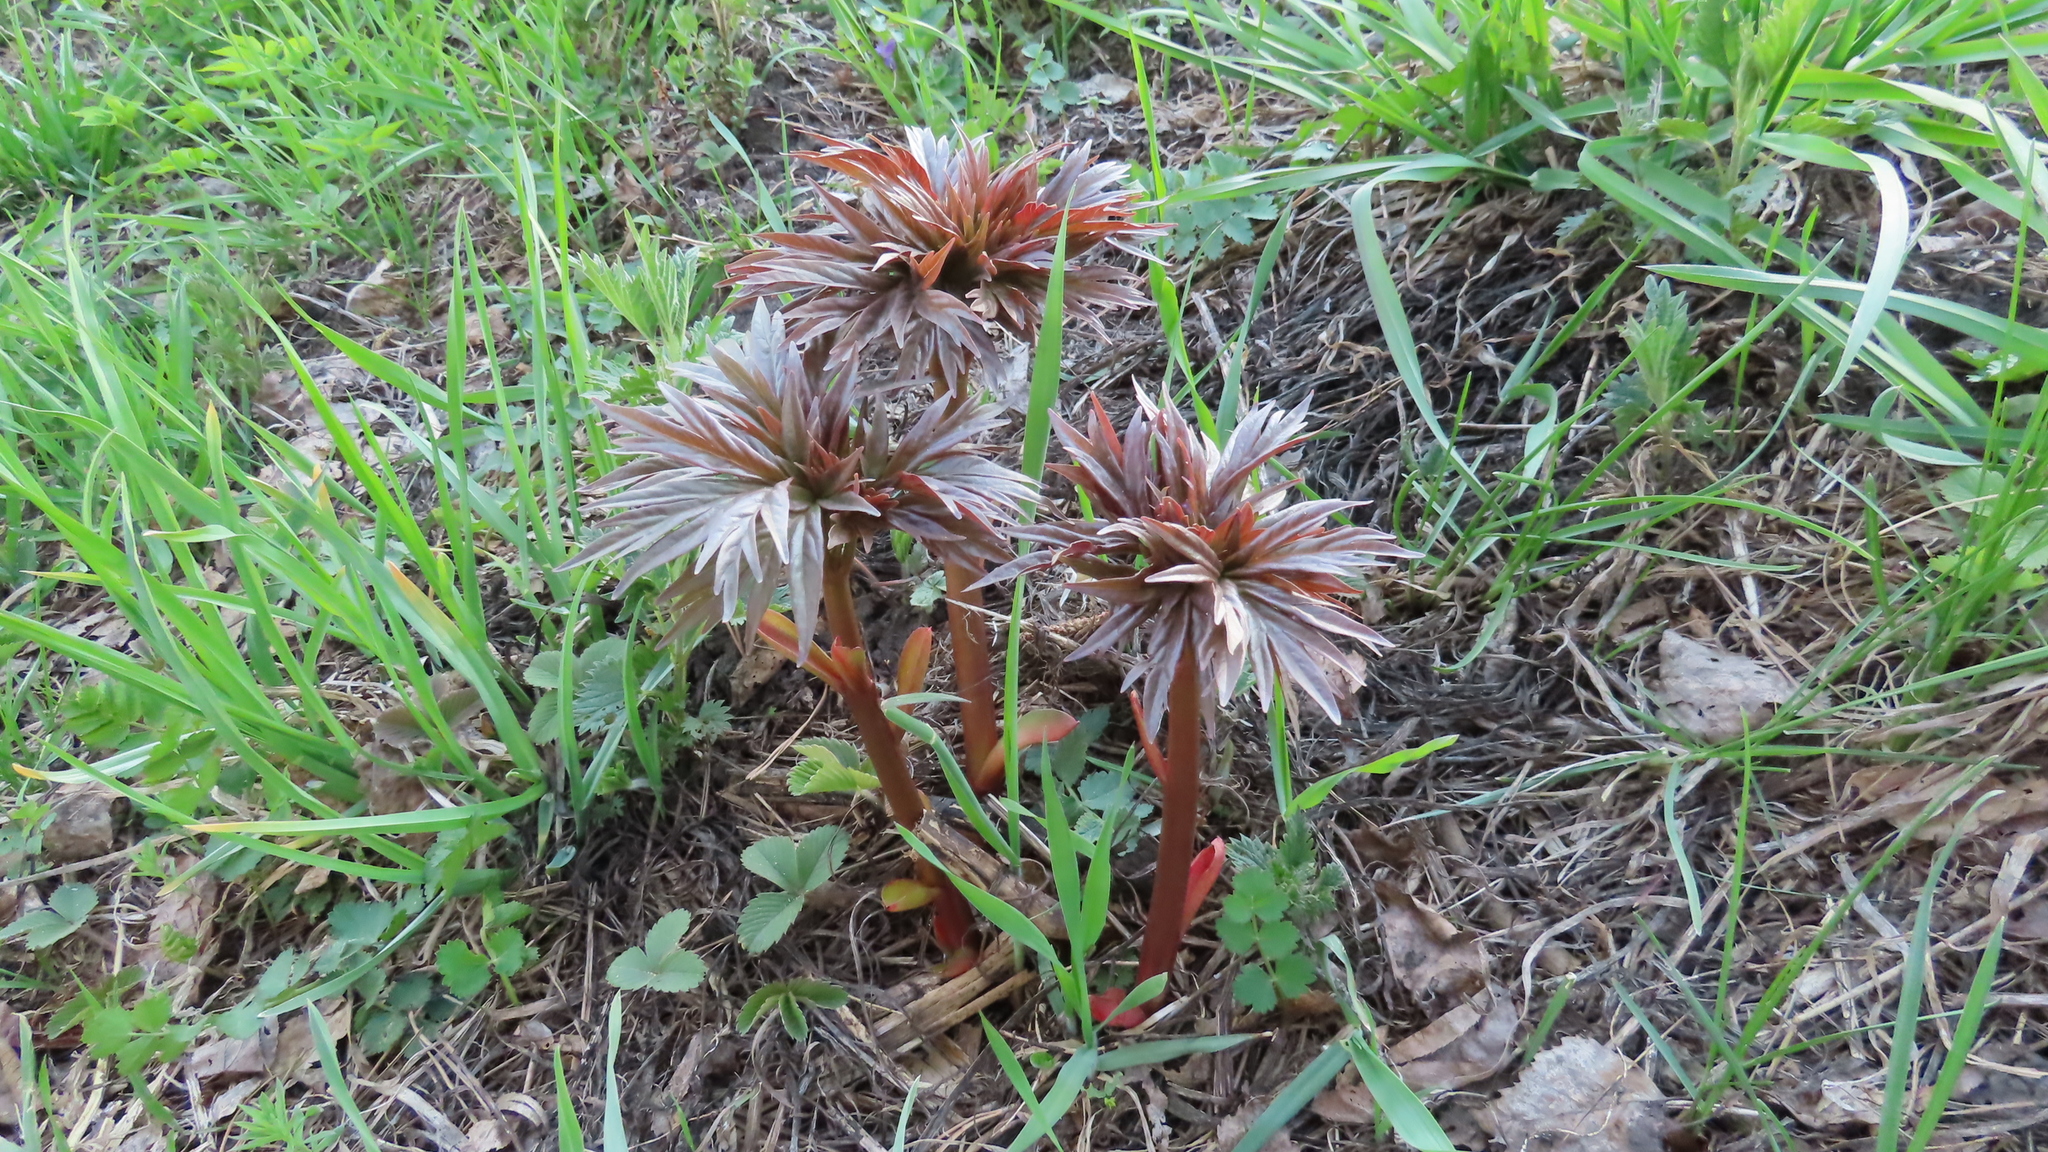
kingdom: Plantae
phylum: Tracheophyta
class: Magnoliopsida
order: Saxifragales
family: Paeoniaceae
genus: Paeonia
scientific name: Paeonia anomala
